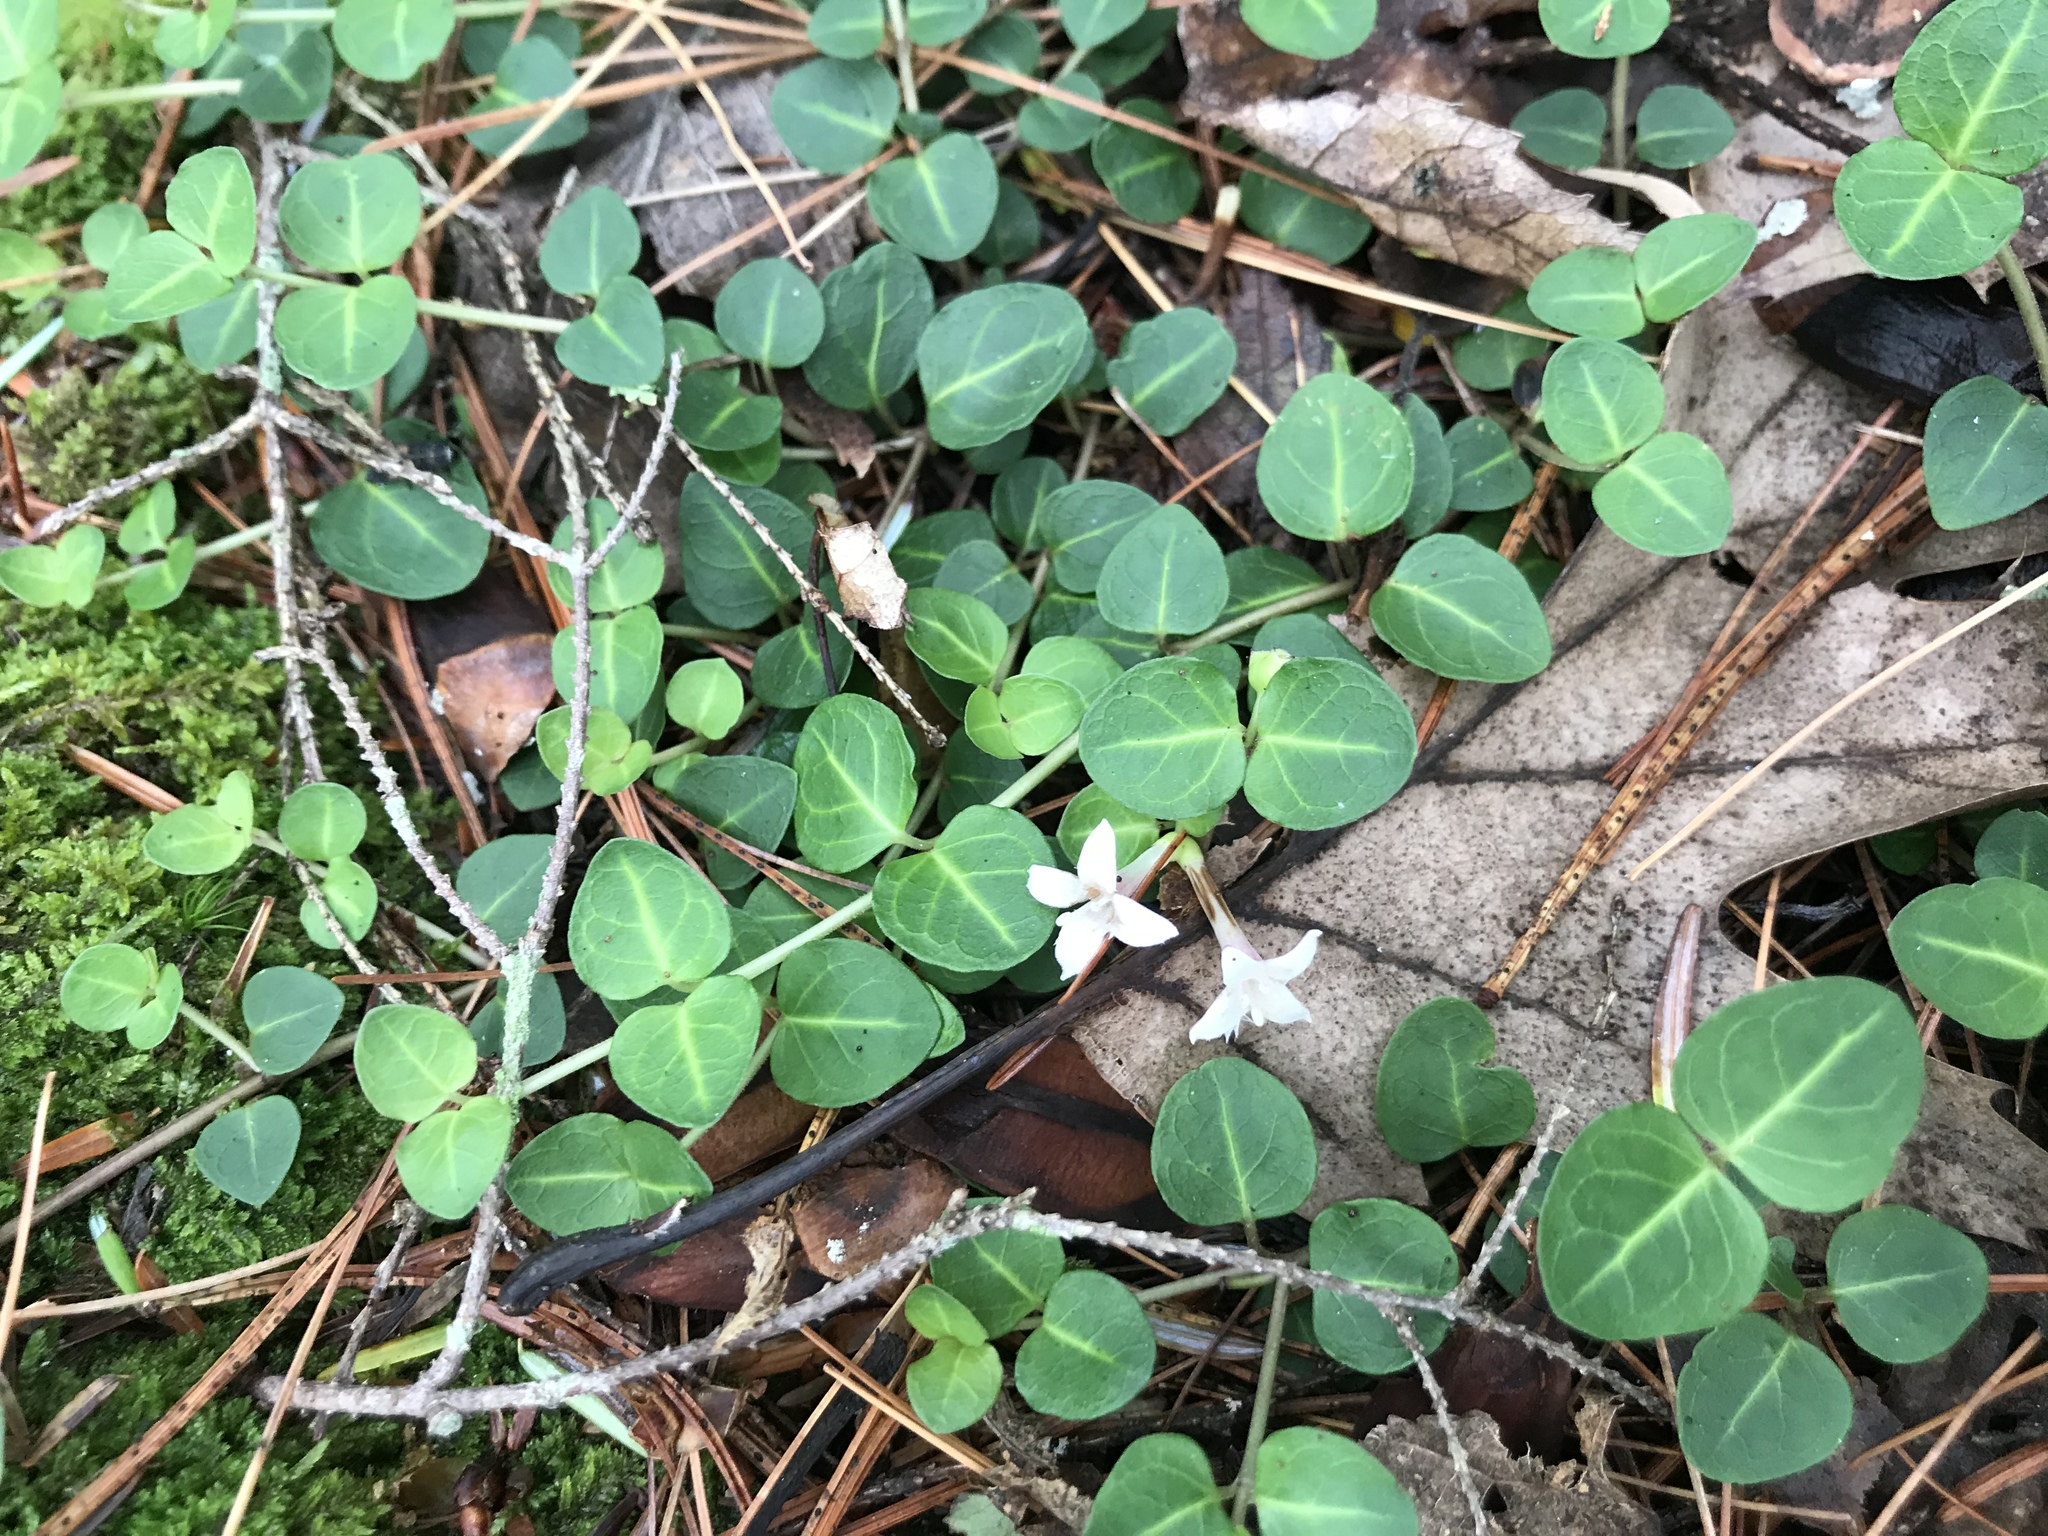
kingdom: Plantae
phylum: Tracheophyta
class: Magnoliopsida
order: Gentianales
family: Rubiaceae
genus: Mitchella
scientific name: Mitchella repens
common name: Partridge-berry
